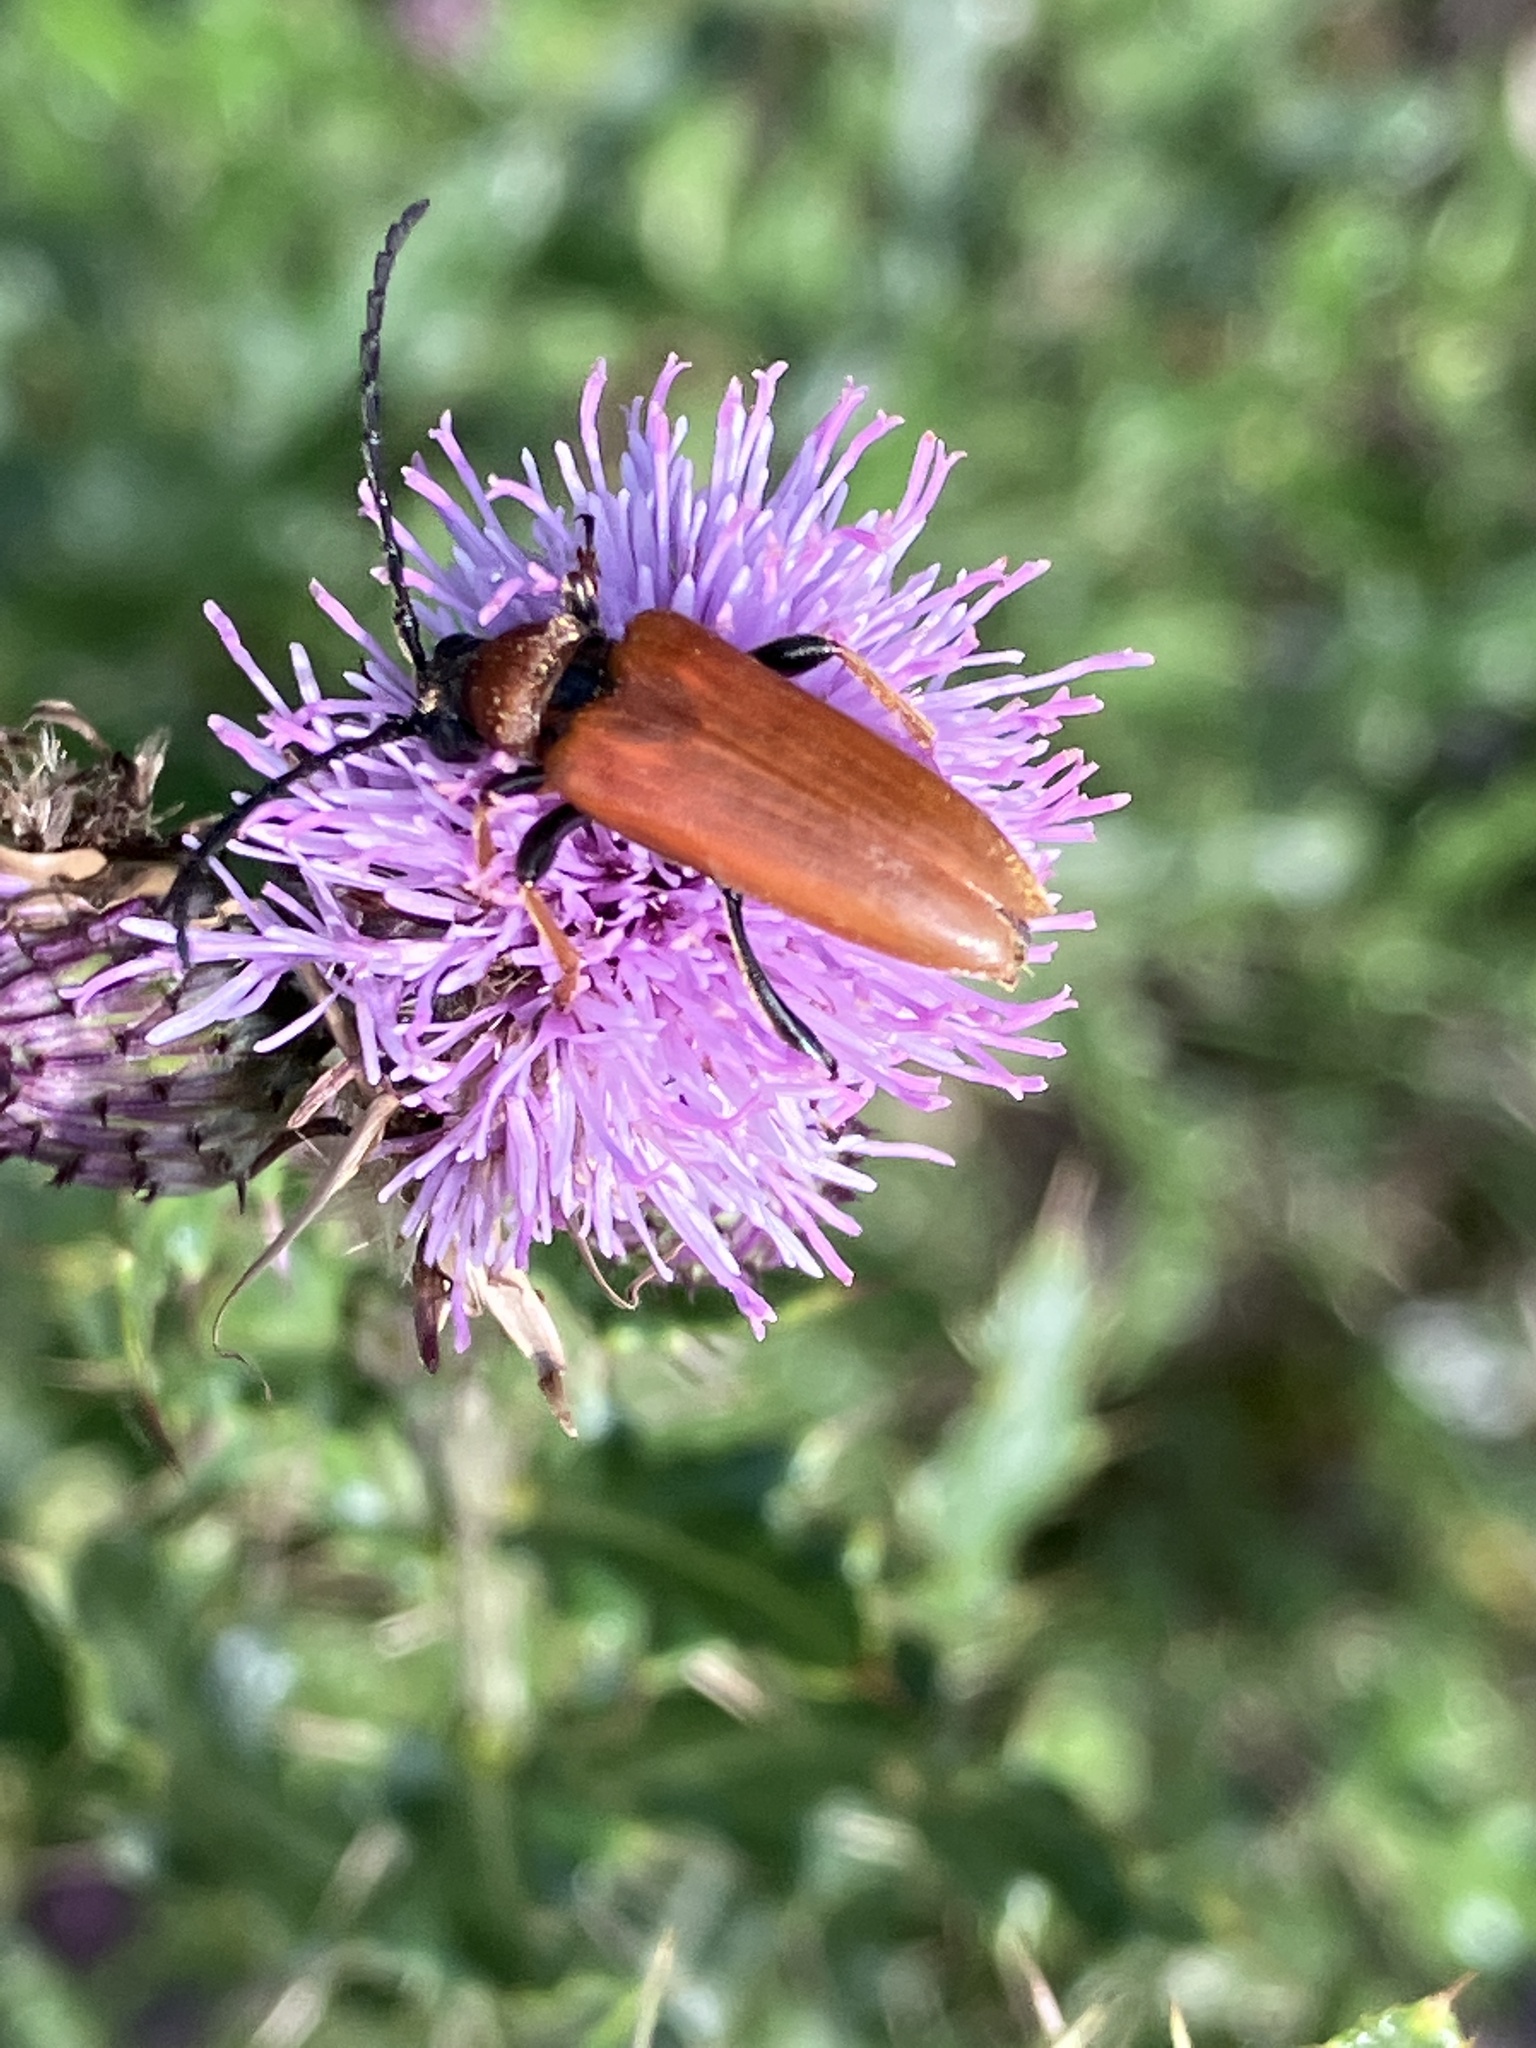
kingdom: Animalia
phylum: Arthropoda
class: Insecta
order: Coleoptera
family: Cerambycidae
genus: Stictoleptura
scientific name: Stictoleptura rubra
